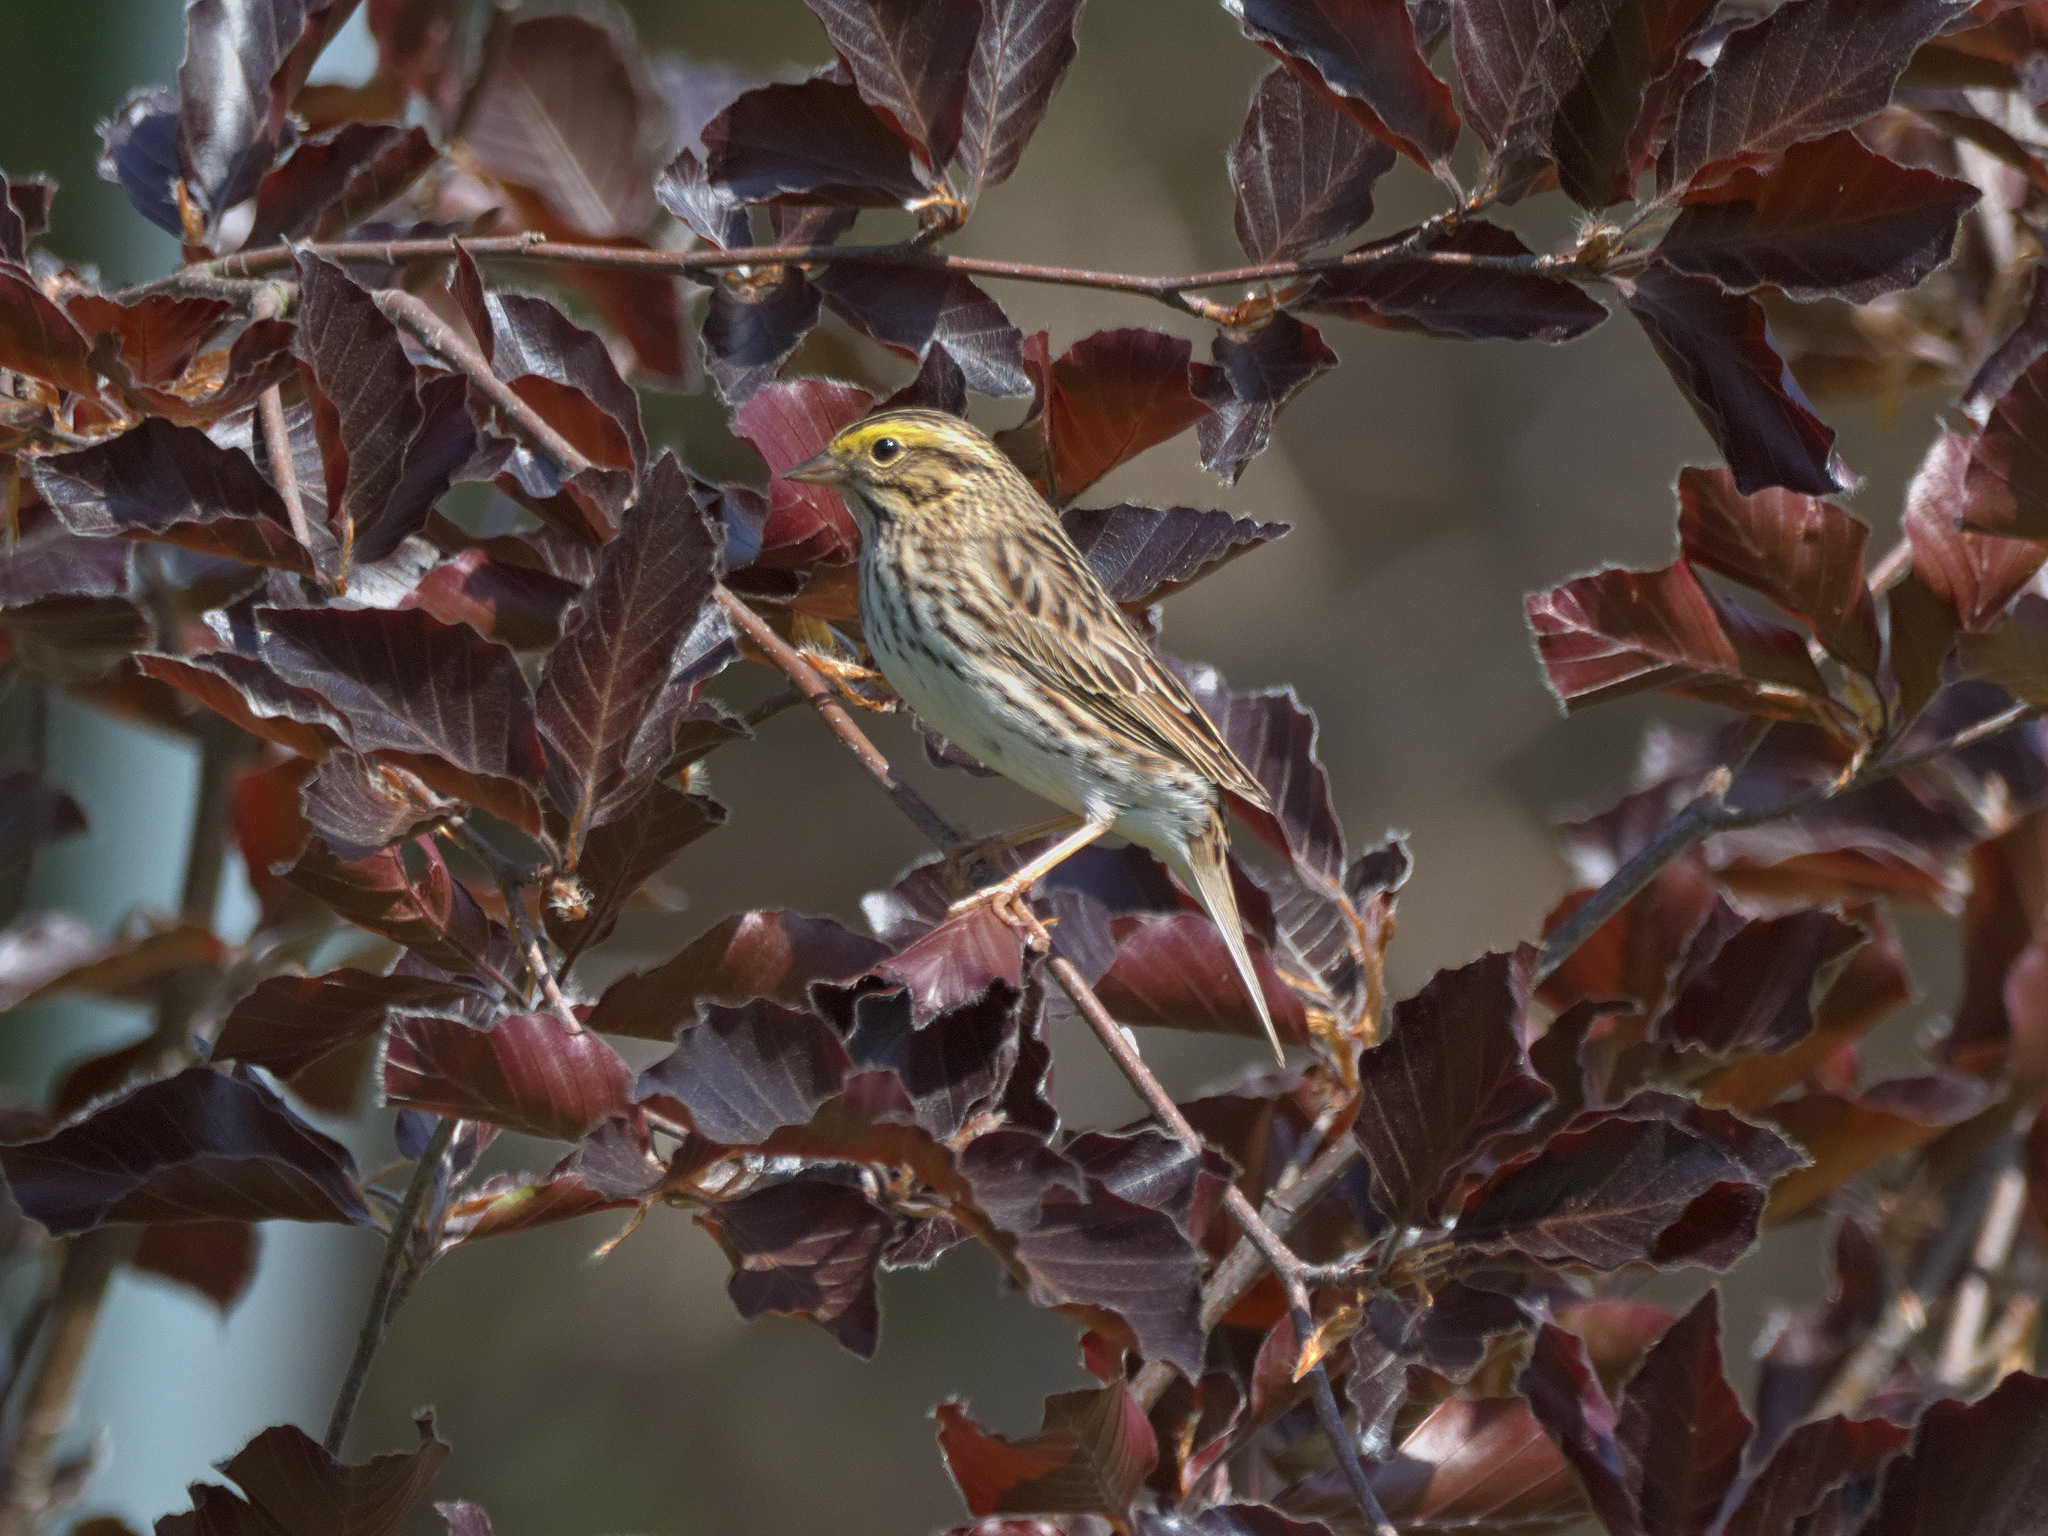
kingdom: Animalia
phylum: Chordata
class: Aves
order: Passeriformes
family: Passerellidae
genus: Passerculus
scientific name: Passerculus sandwichensis
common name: Savannah sparrow
